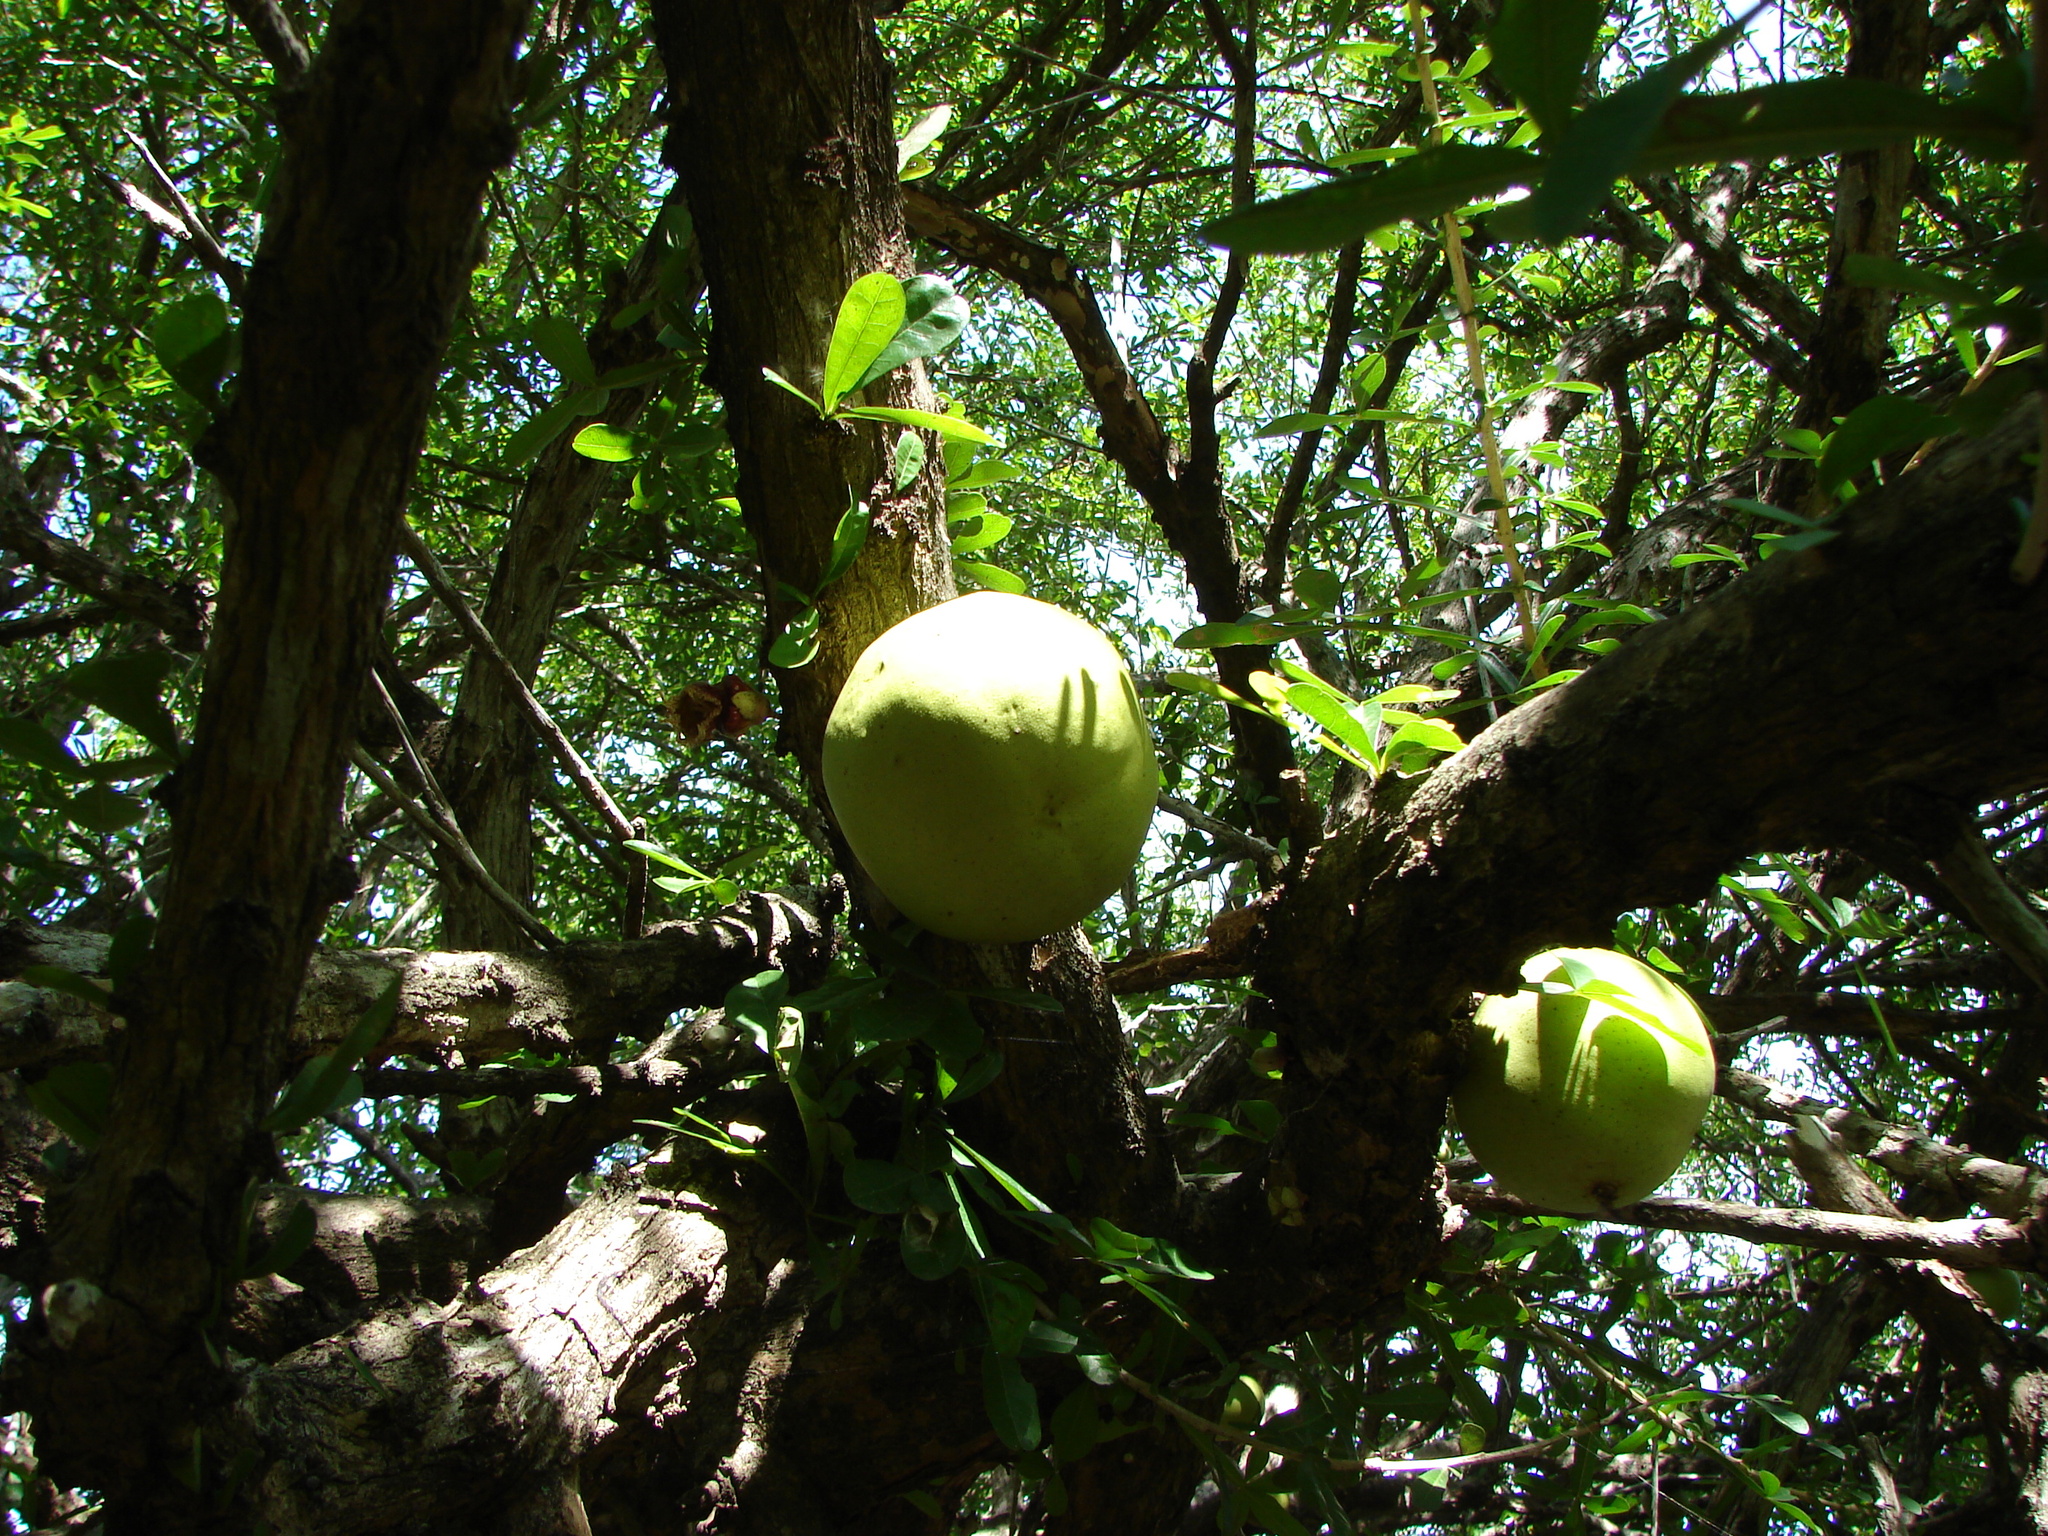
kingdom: Plantae
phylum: Tracheophyta
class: Magnoliopsida
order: Lamiales
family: Bignoniaceae
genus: Crescentia
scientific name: Crescentia alata
